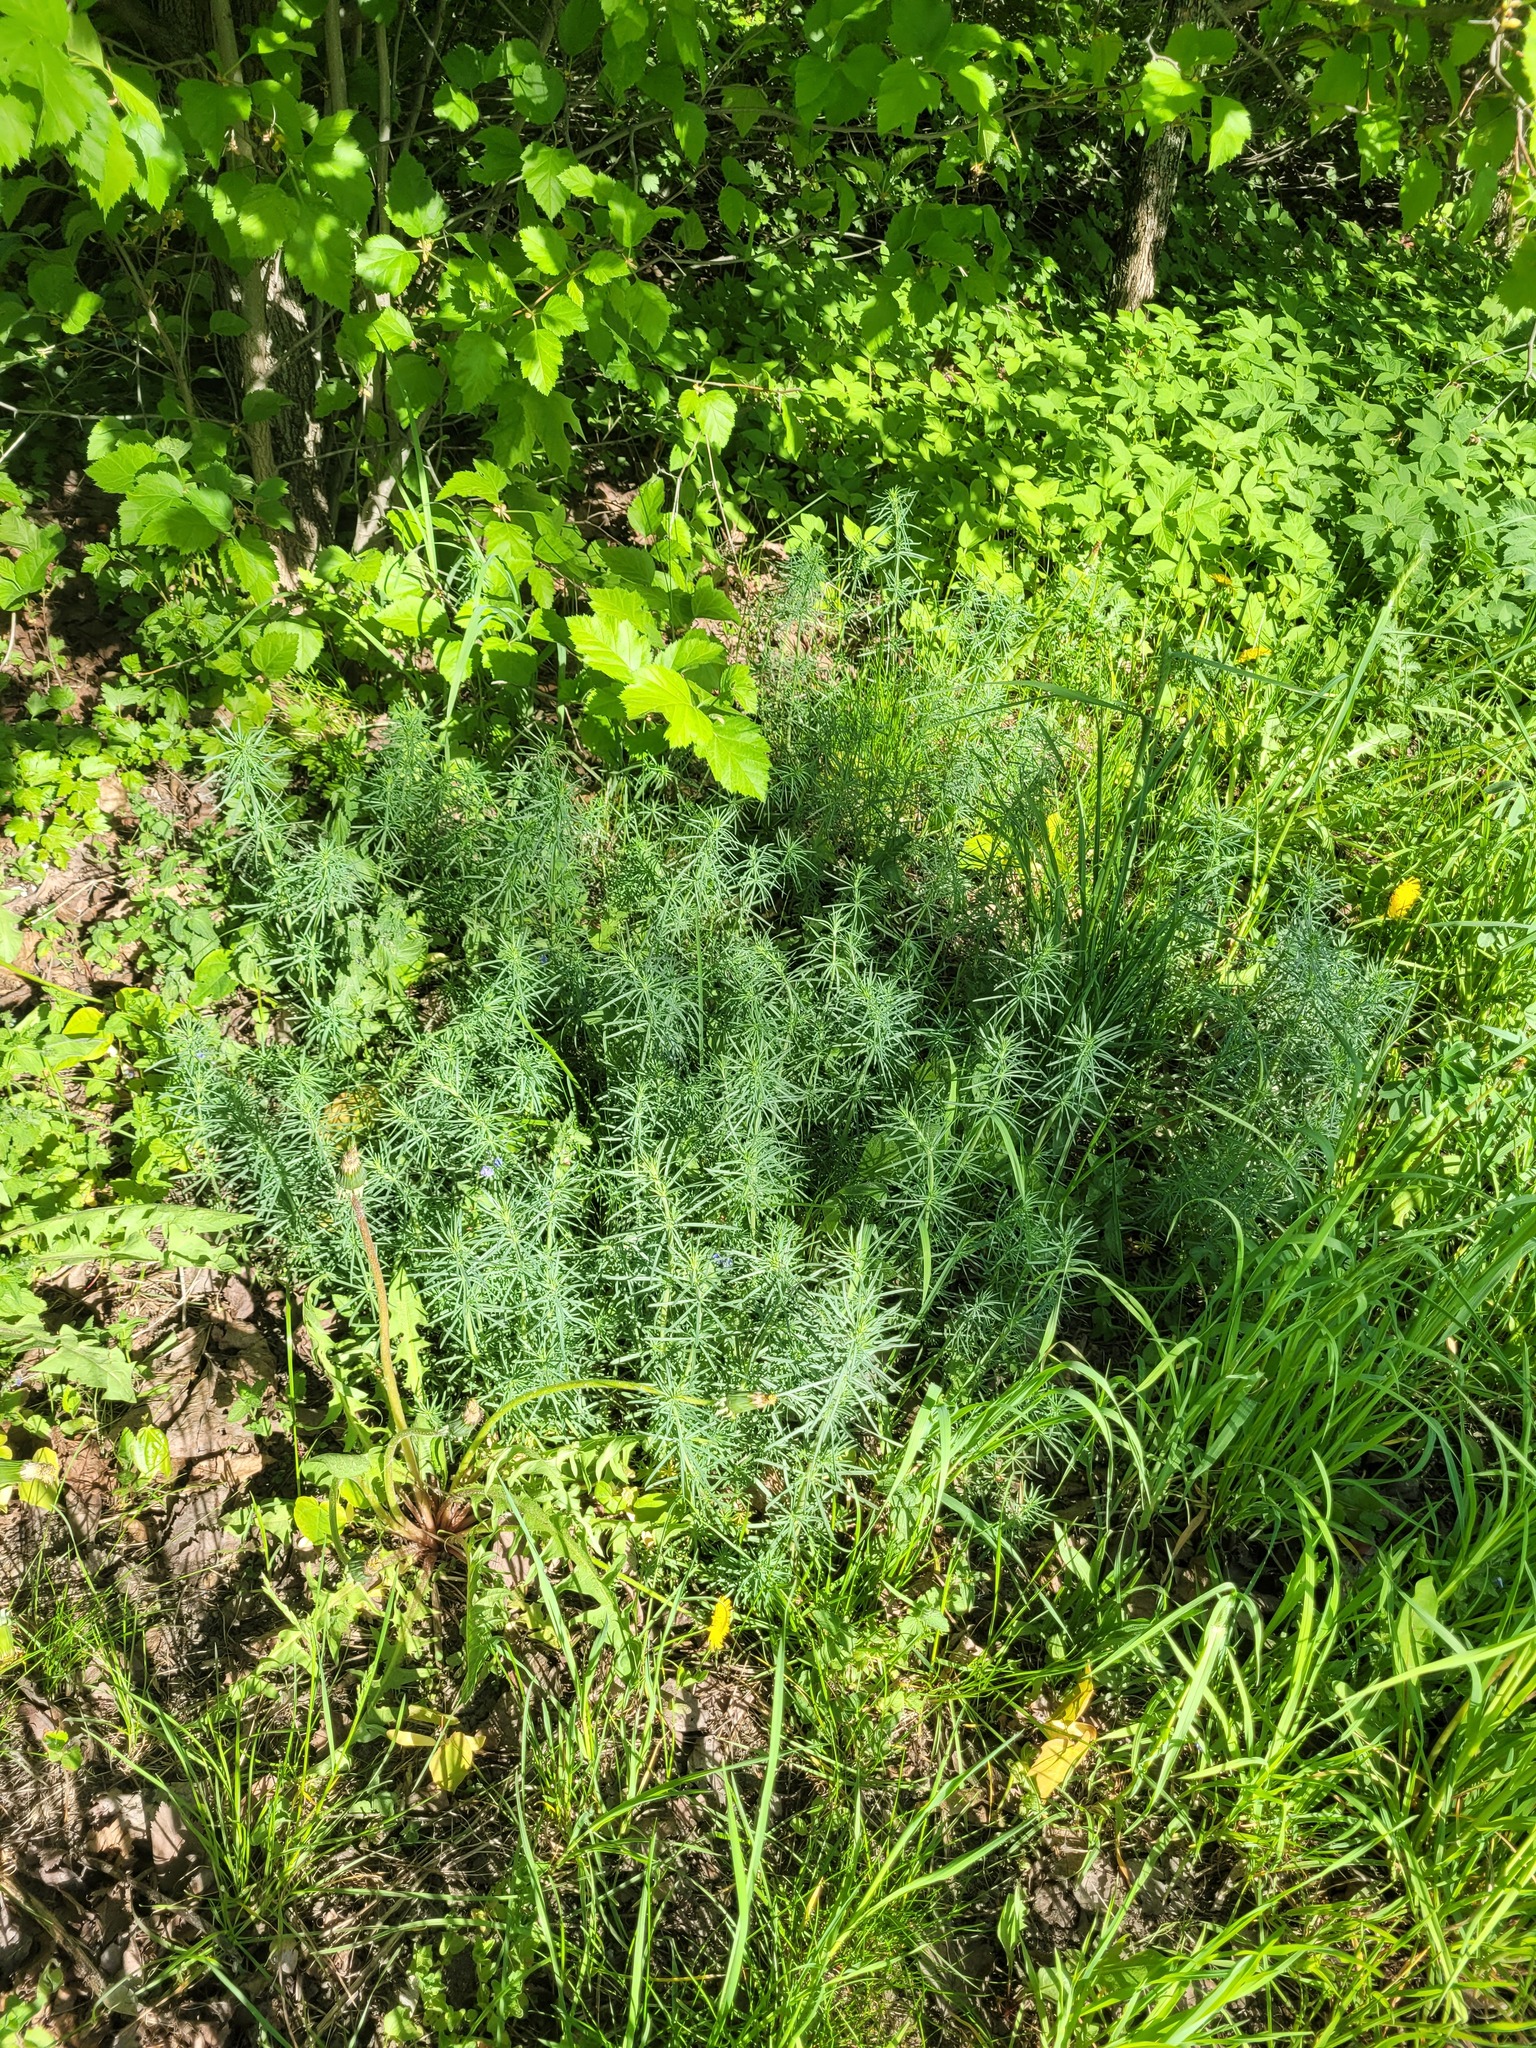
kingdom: Plantae
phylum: Tracheophyta
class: Magnoliopsida
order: Gentianales
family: Rubiaceae
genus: Galium
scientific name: Galium verum
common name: Lady's bedstraw
